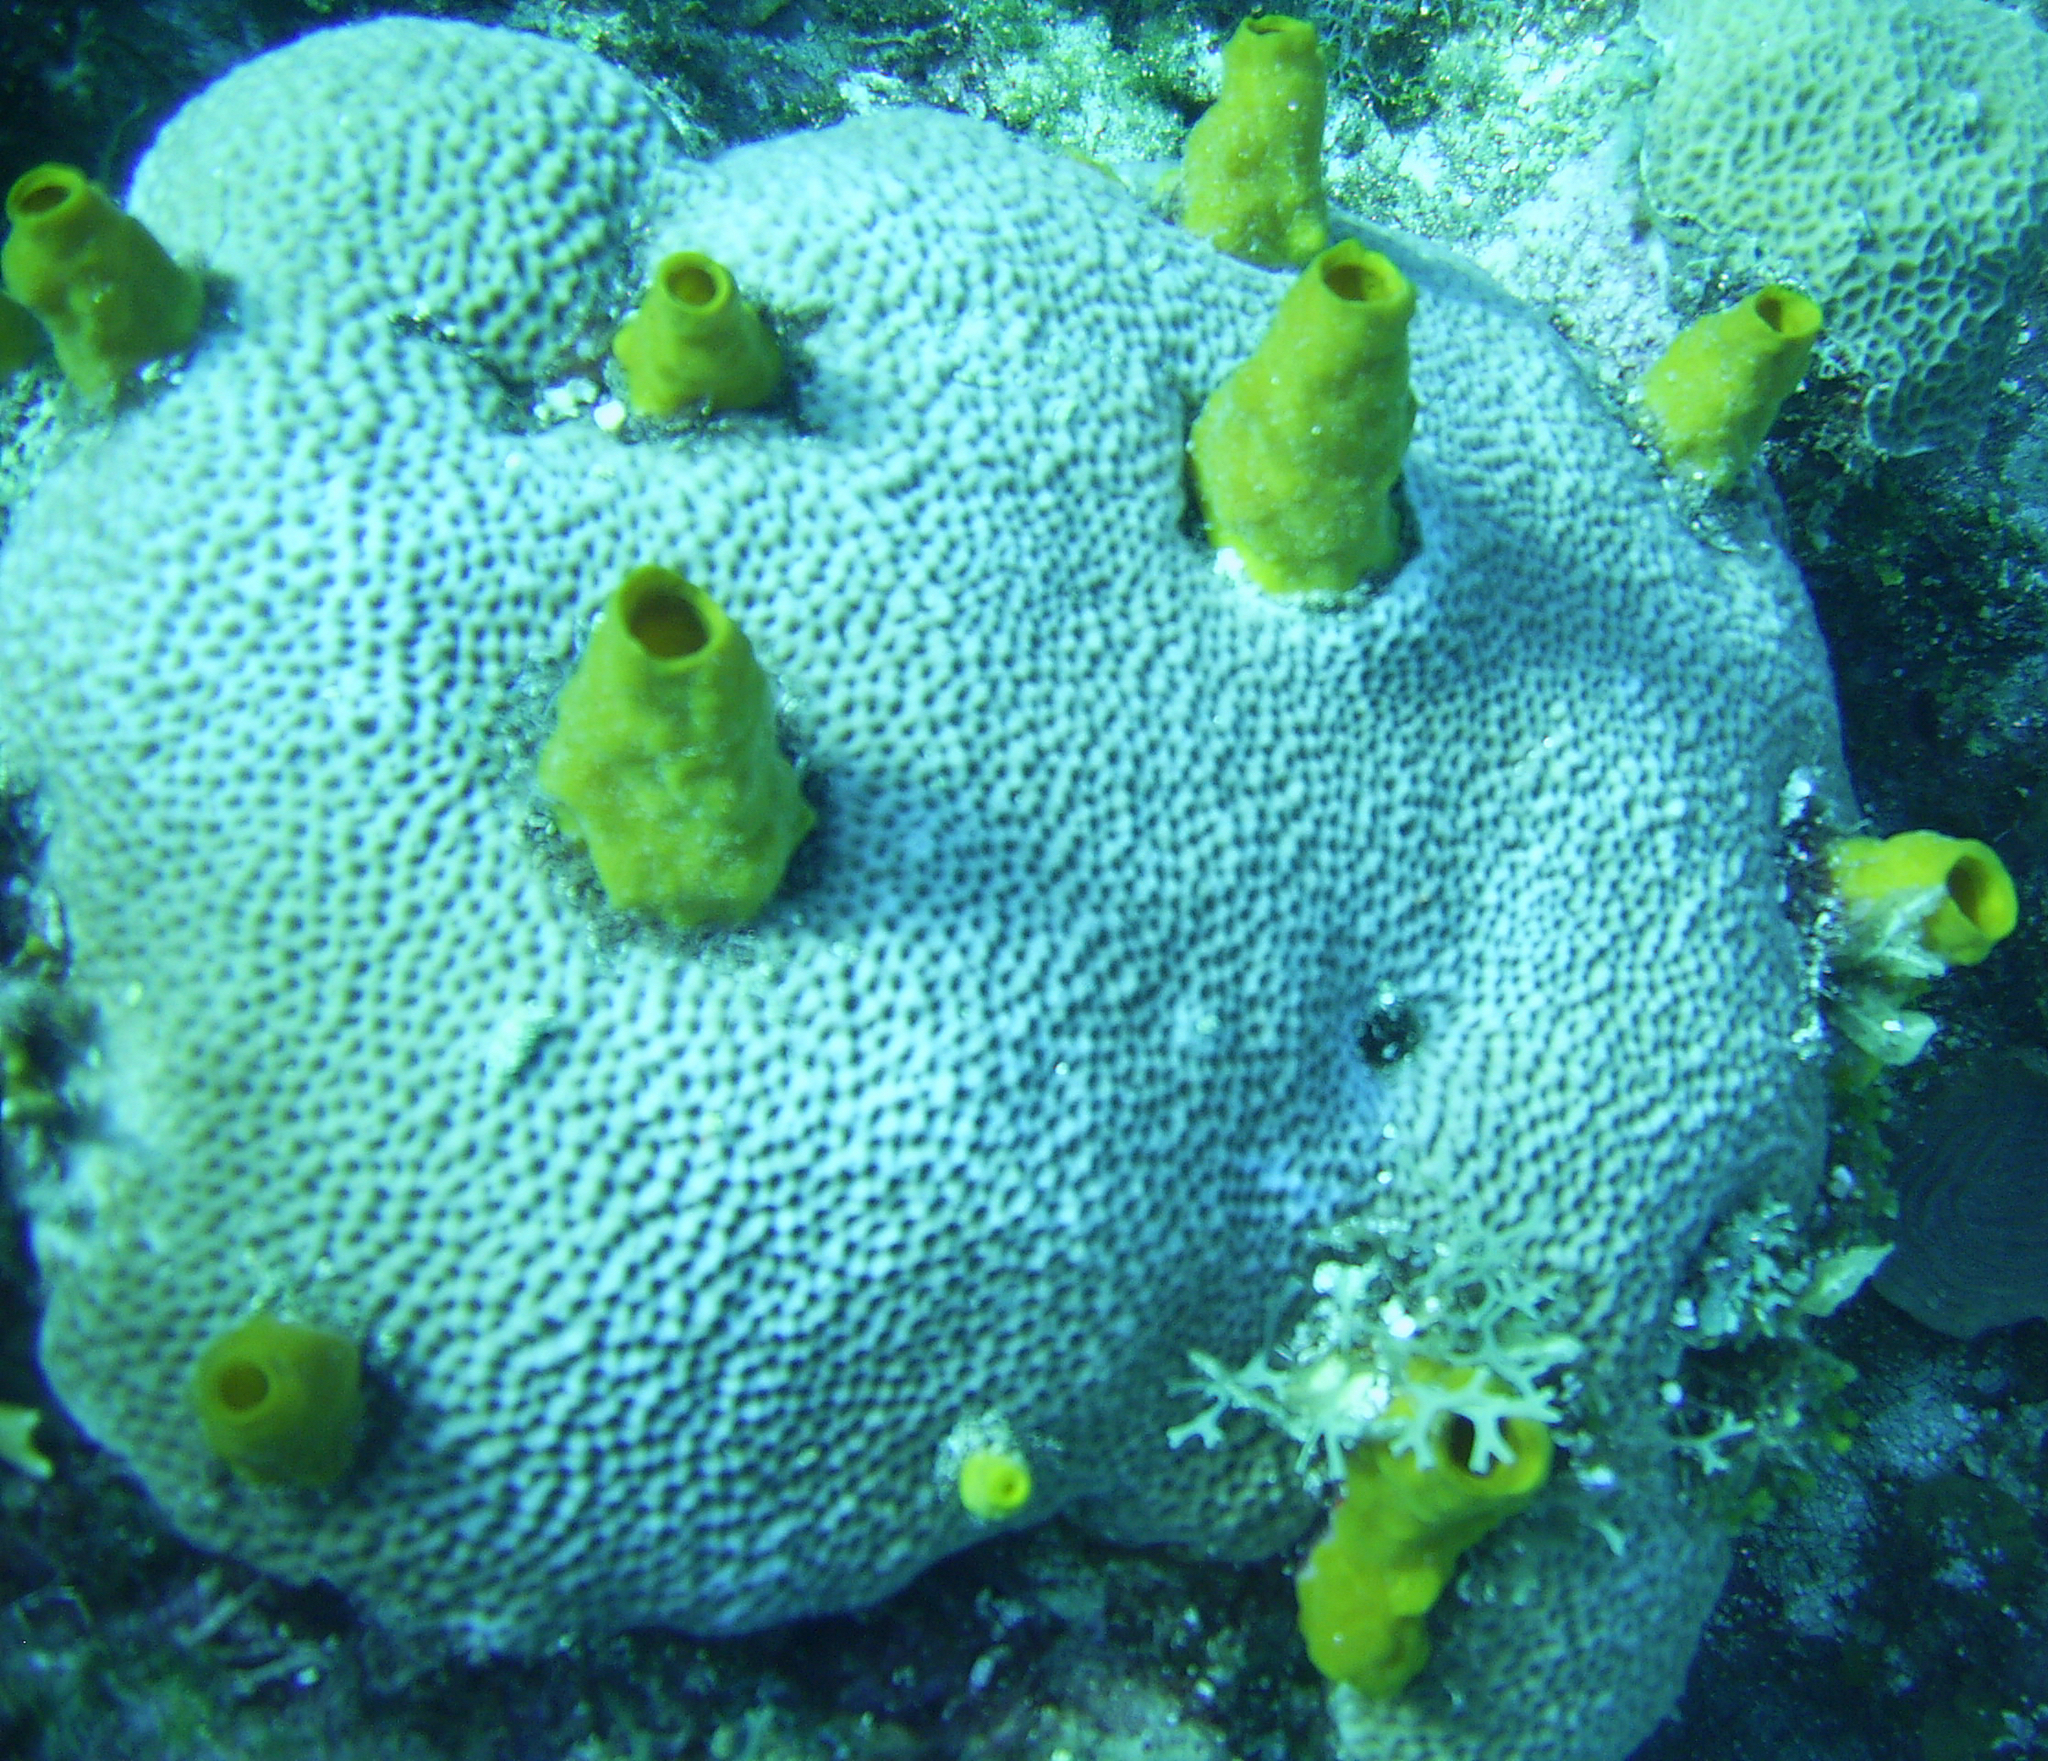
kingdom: Animalia
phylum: Cnidaria
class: Anthozoa
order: Scleractinia
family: Rhizangiidae
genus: Siderastrea
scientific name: Siderastrea siderea
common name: Massive starlet coral
